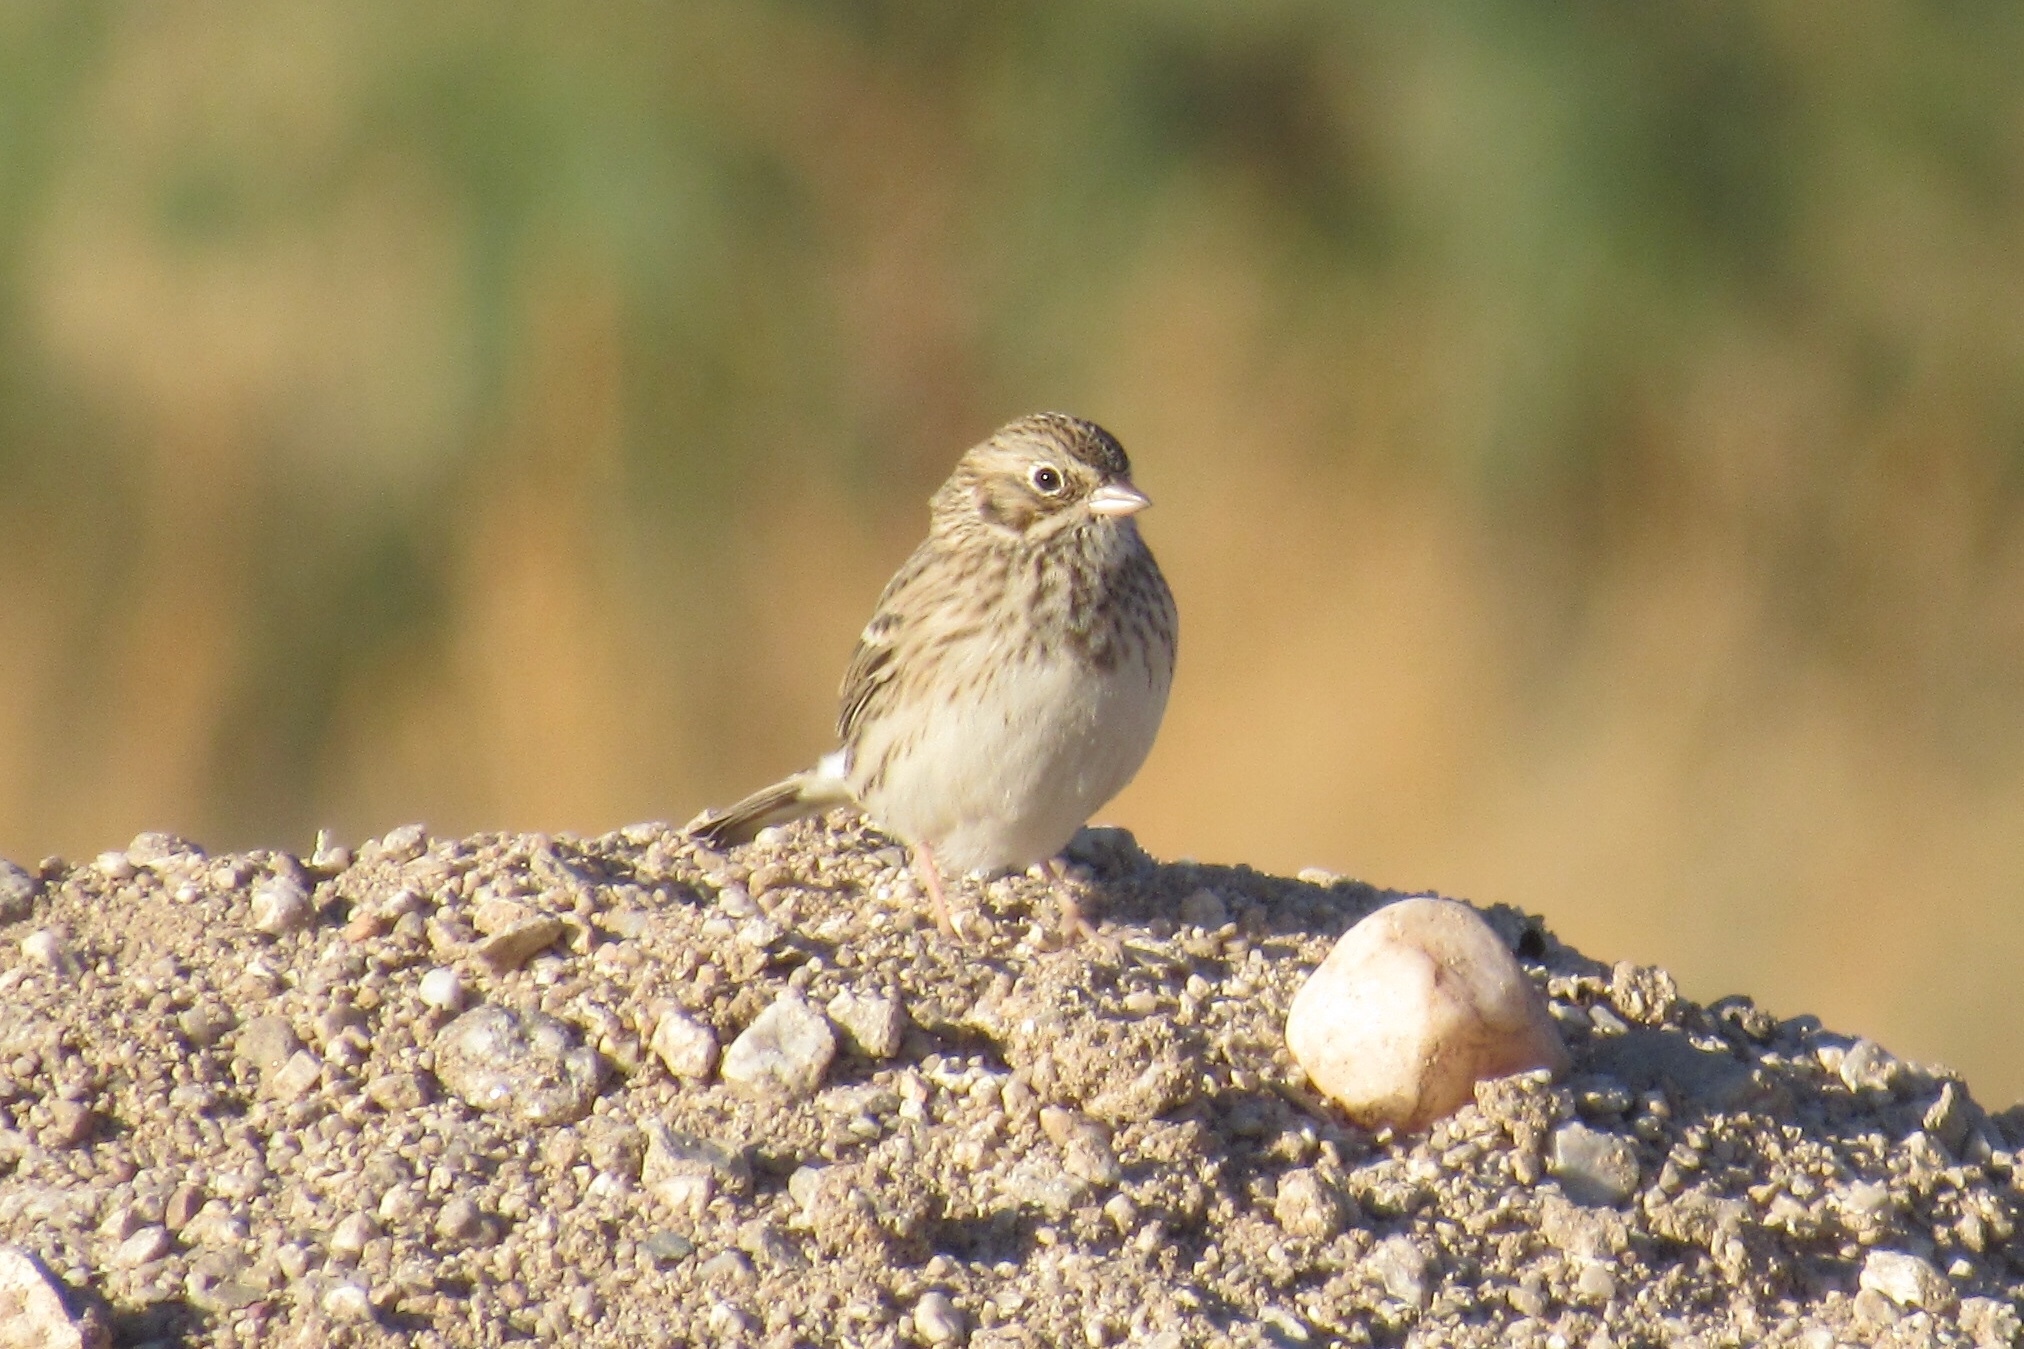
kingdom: Animalia
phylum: Chordata
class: Aves
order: Passeriformes
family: Passerellidae
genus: Pooecetes
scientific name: Pooecetes gramineus
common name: Vesper sparrow
